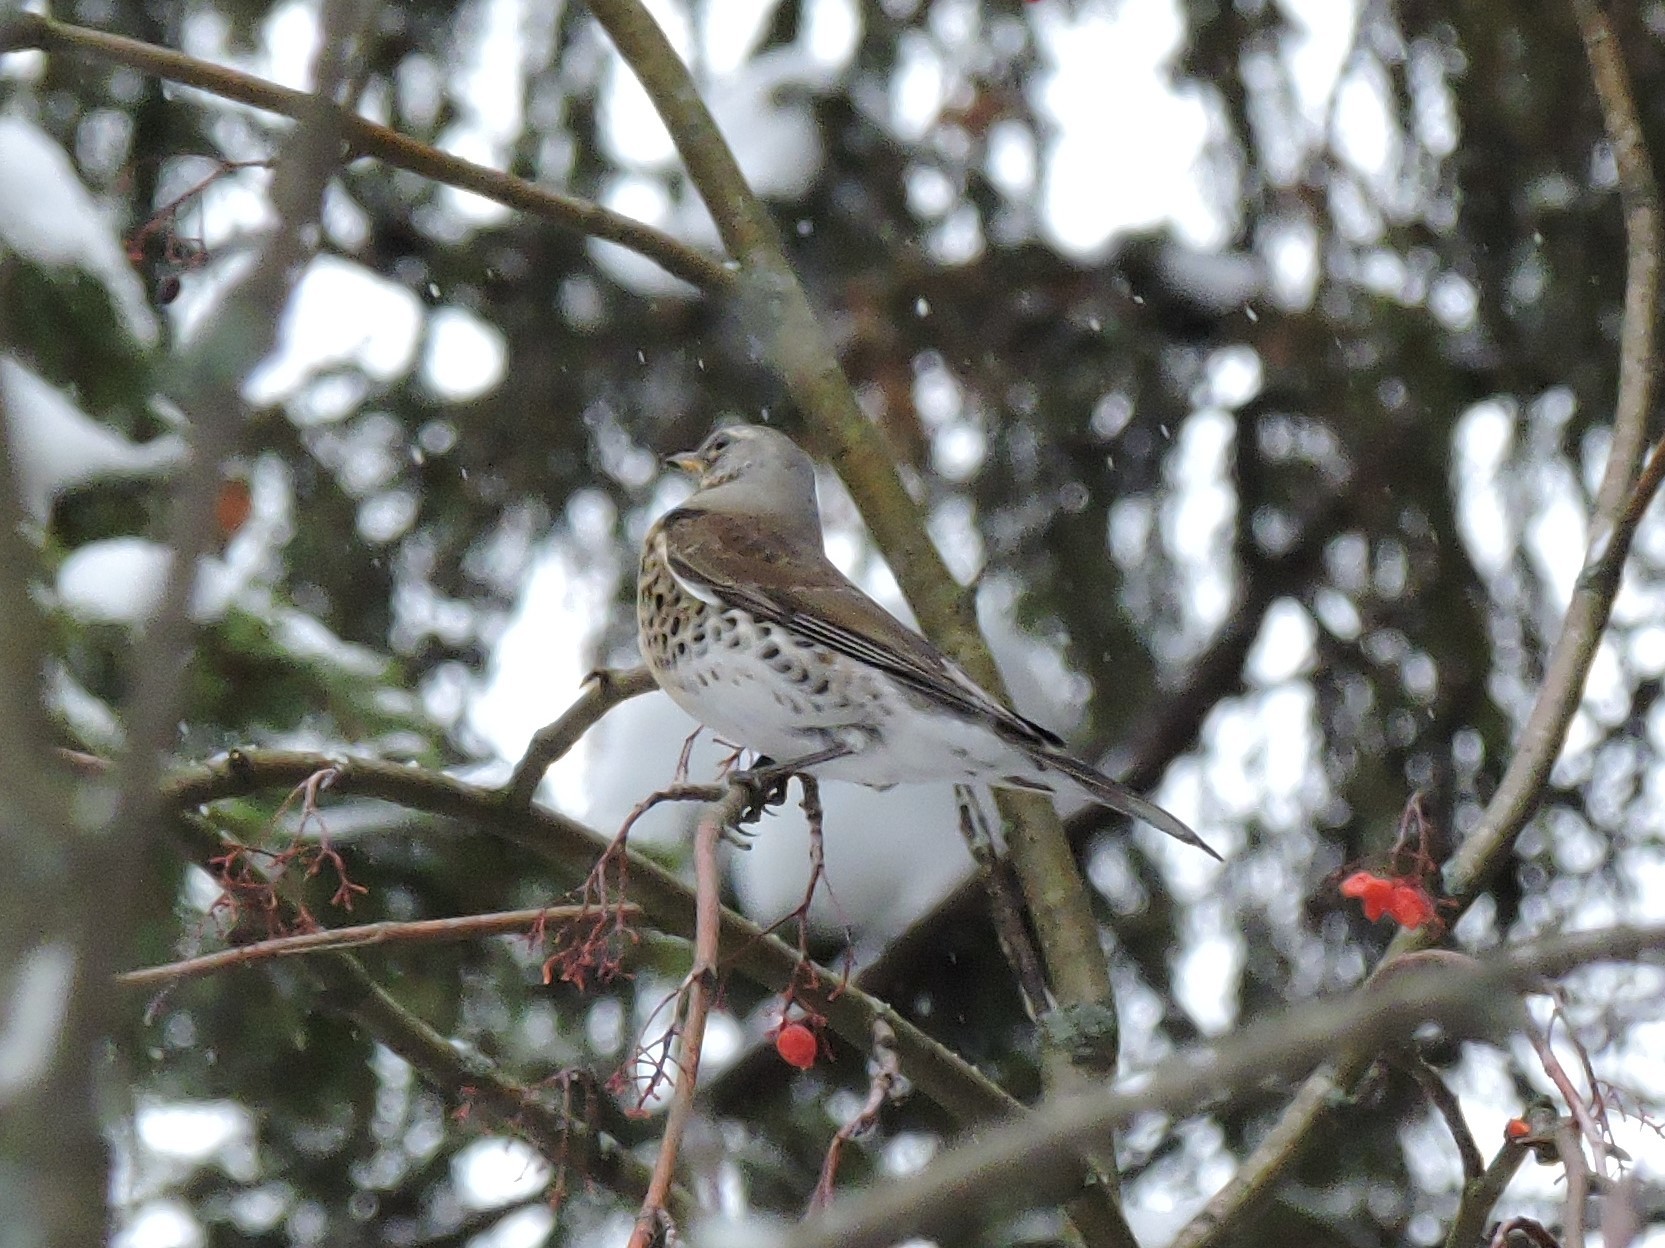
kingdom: Animalia
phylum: Chordata
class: Aves
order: Passeriformes
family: Turdidae
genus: Turdus
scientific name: Turdus pilaris
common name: Fieldfare
